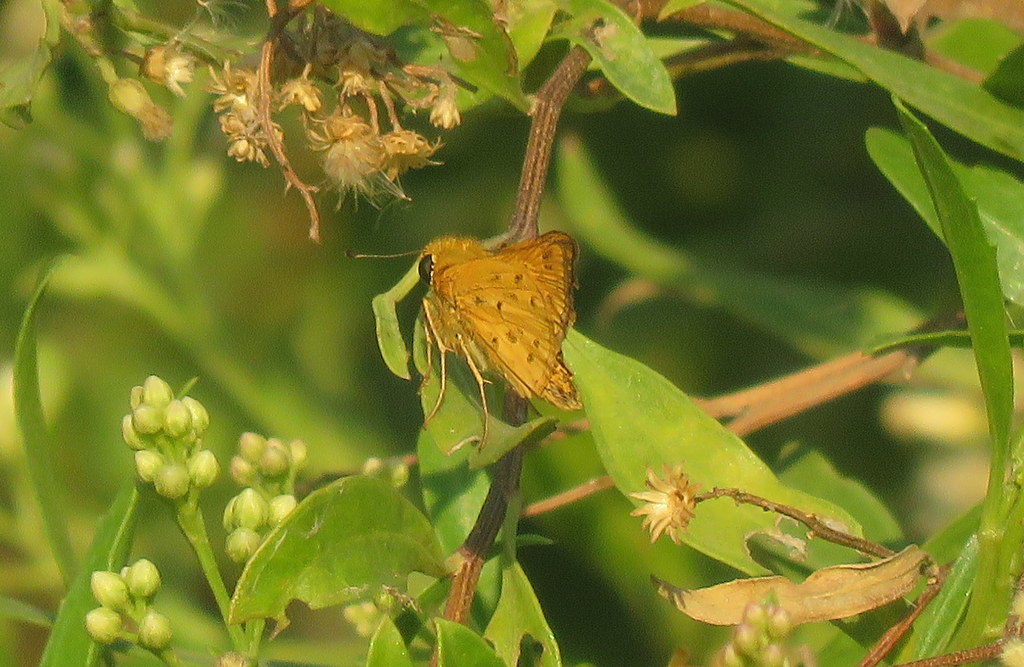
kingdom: Animalia
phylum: Arthropoda
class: Insecta
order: Lepidoptera
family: Hesperiidae
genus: Hylephila
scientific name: Hylephila phyleus
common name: Fiery skipper
